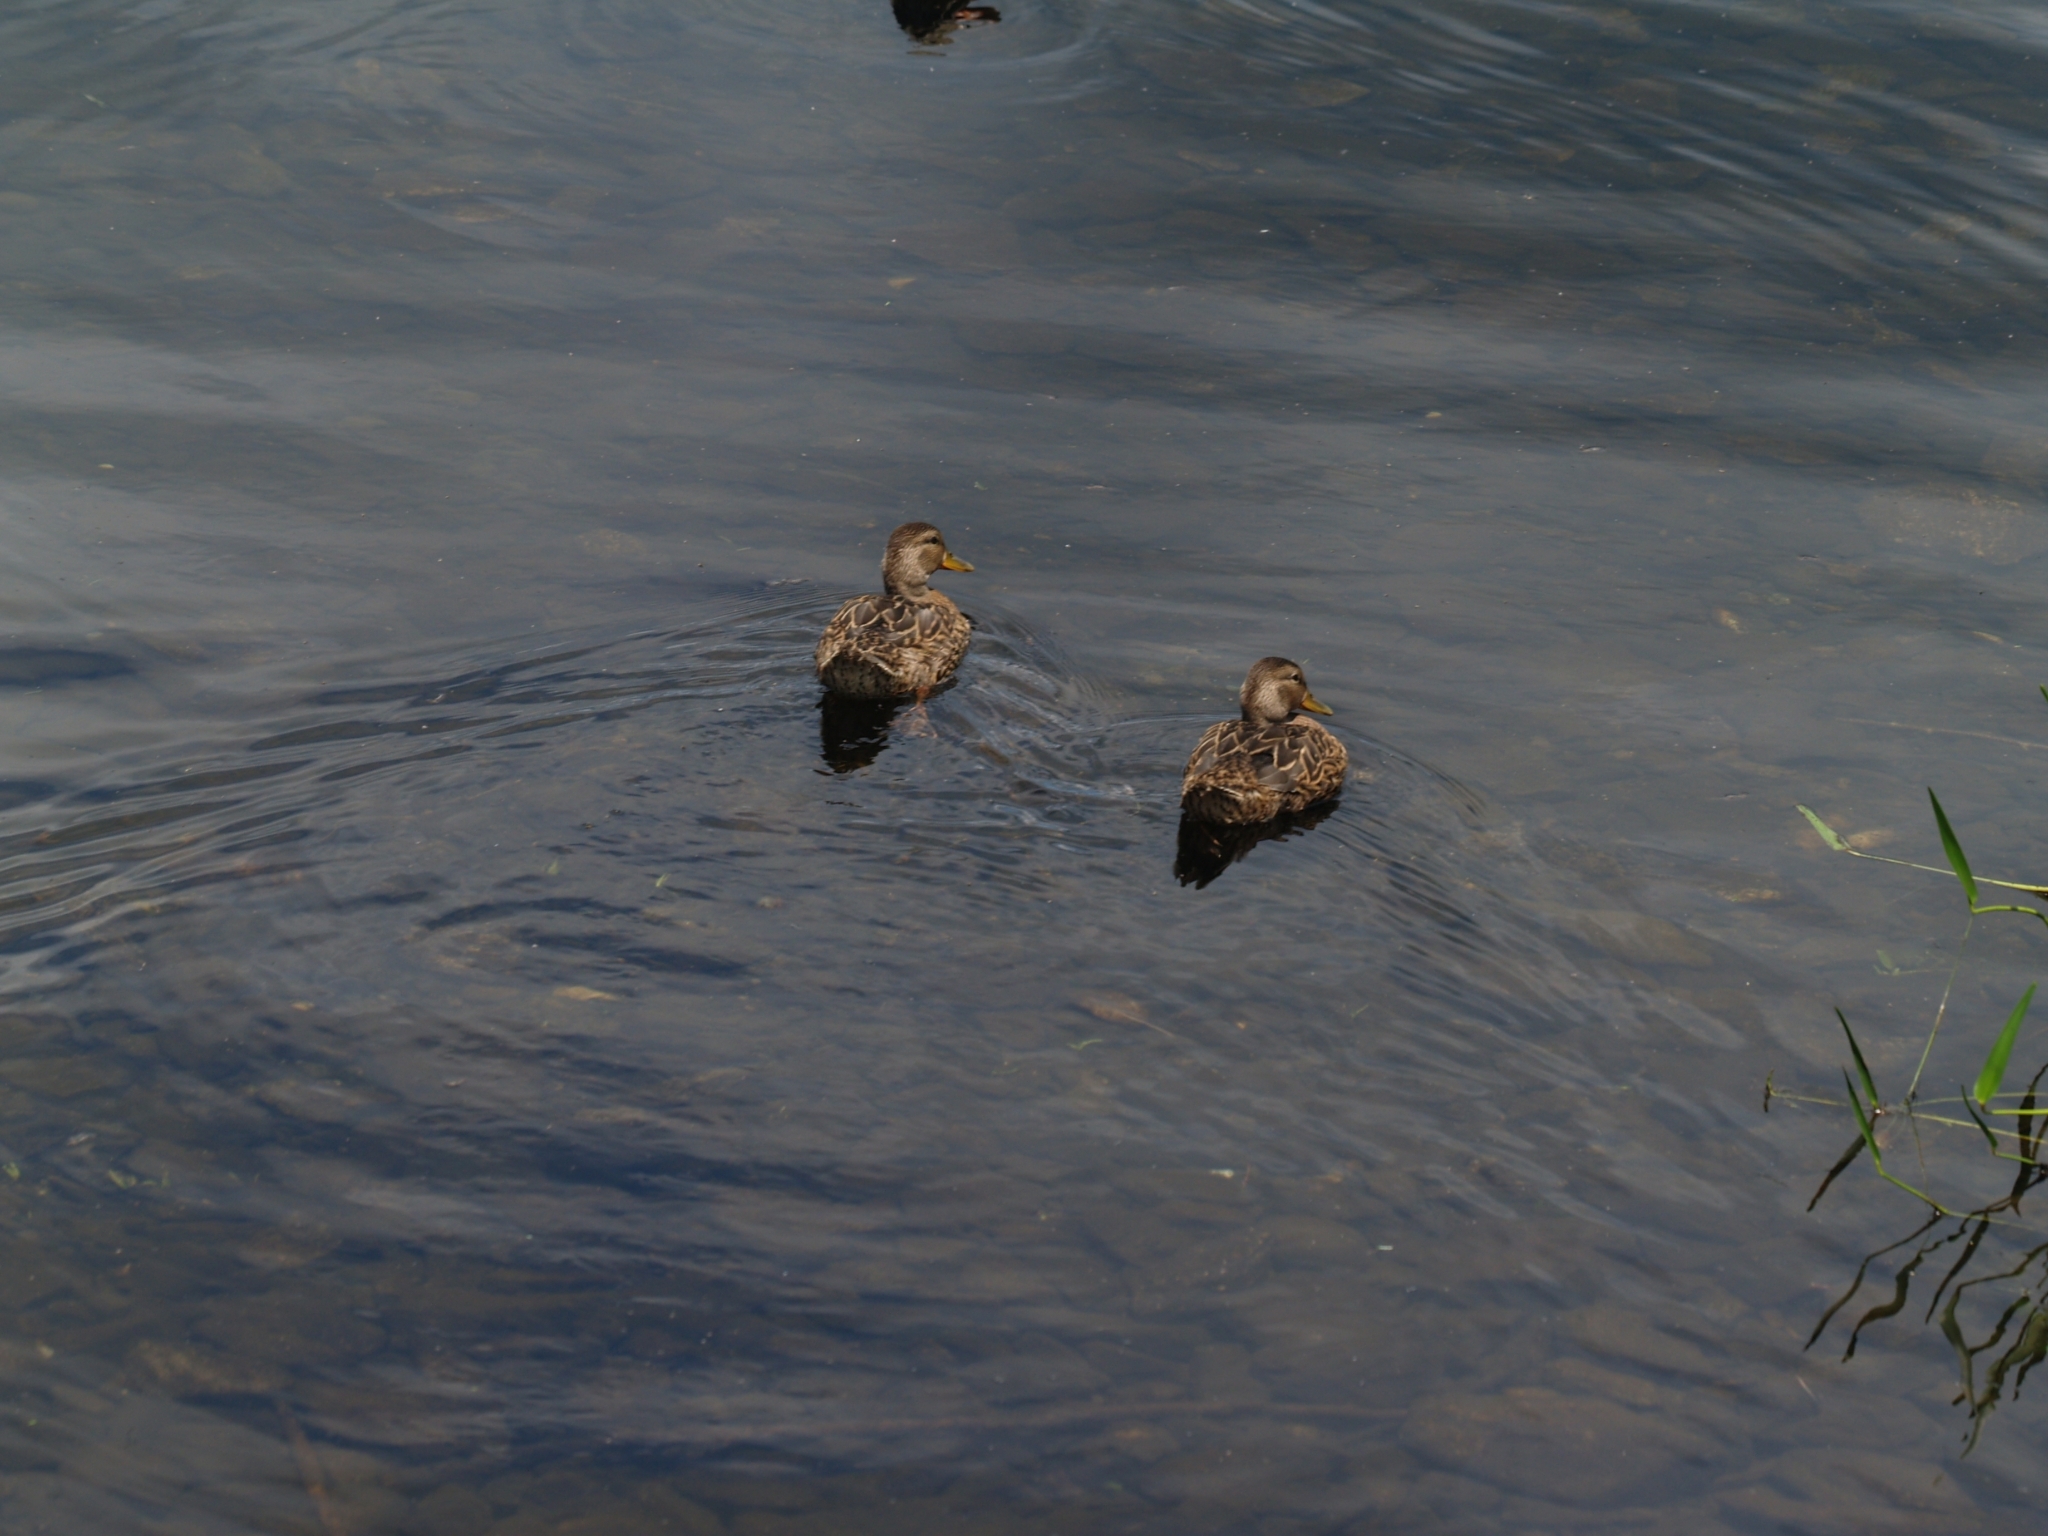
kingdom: Animalia
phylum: Chordata
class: Aves
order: Anseriformes
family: Anatidae
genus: Anas
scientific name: Anas platyrhynchos
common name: Mallard
